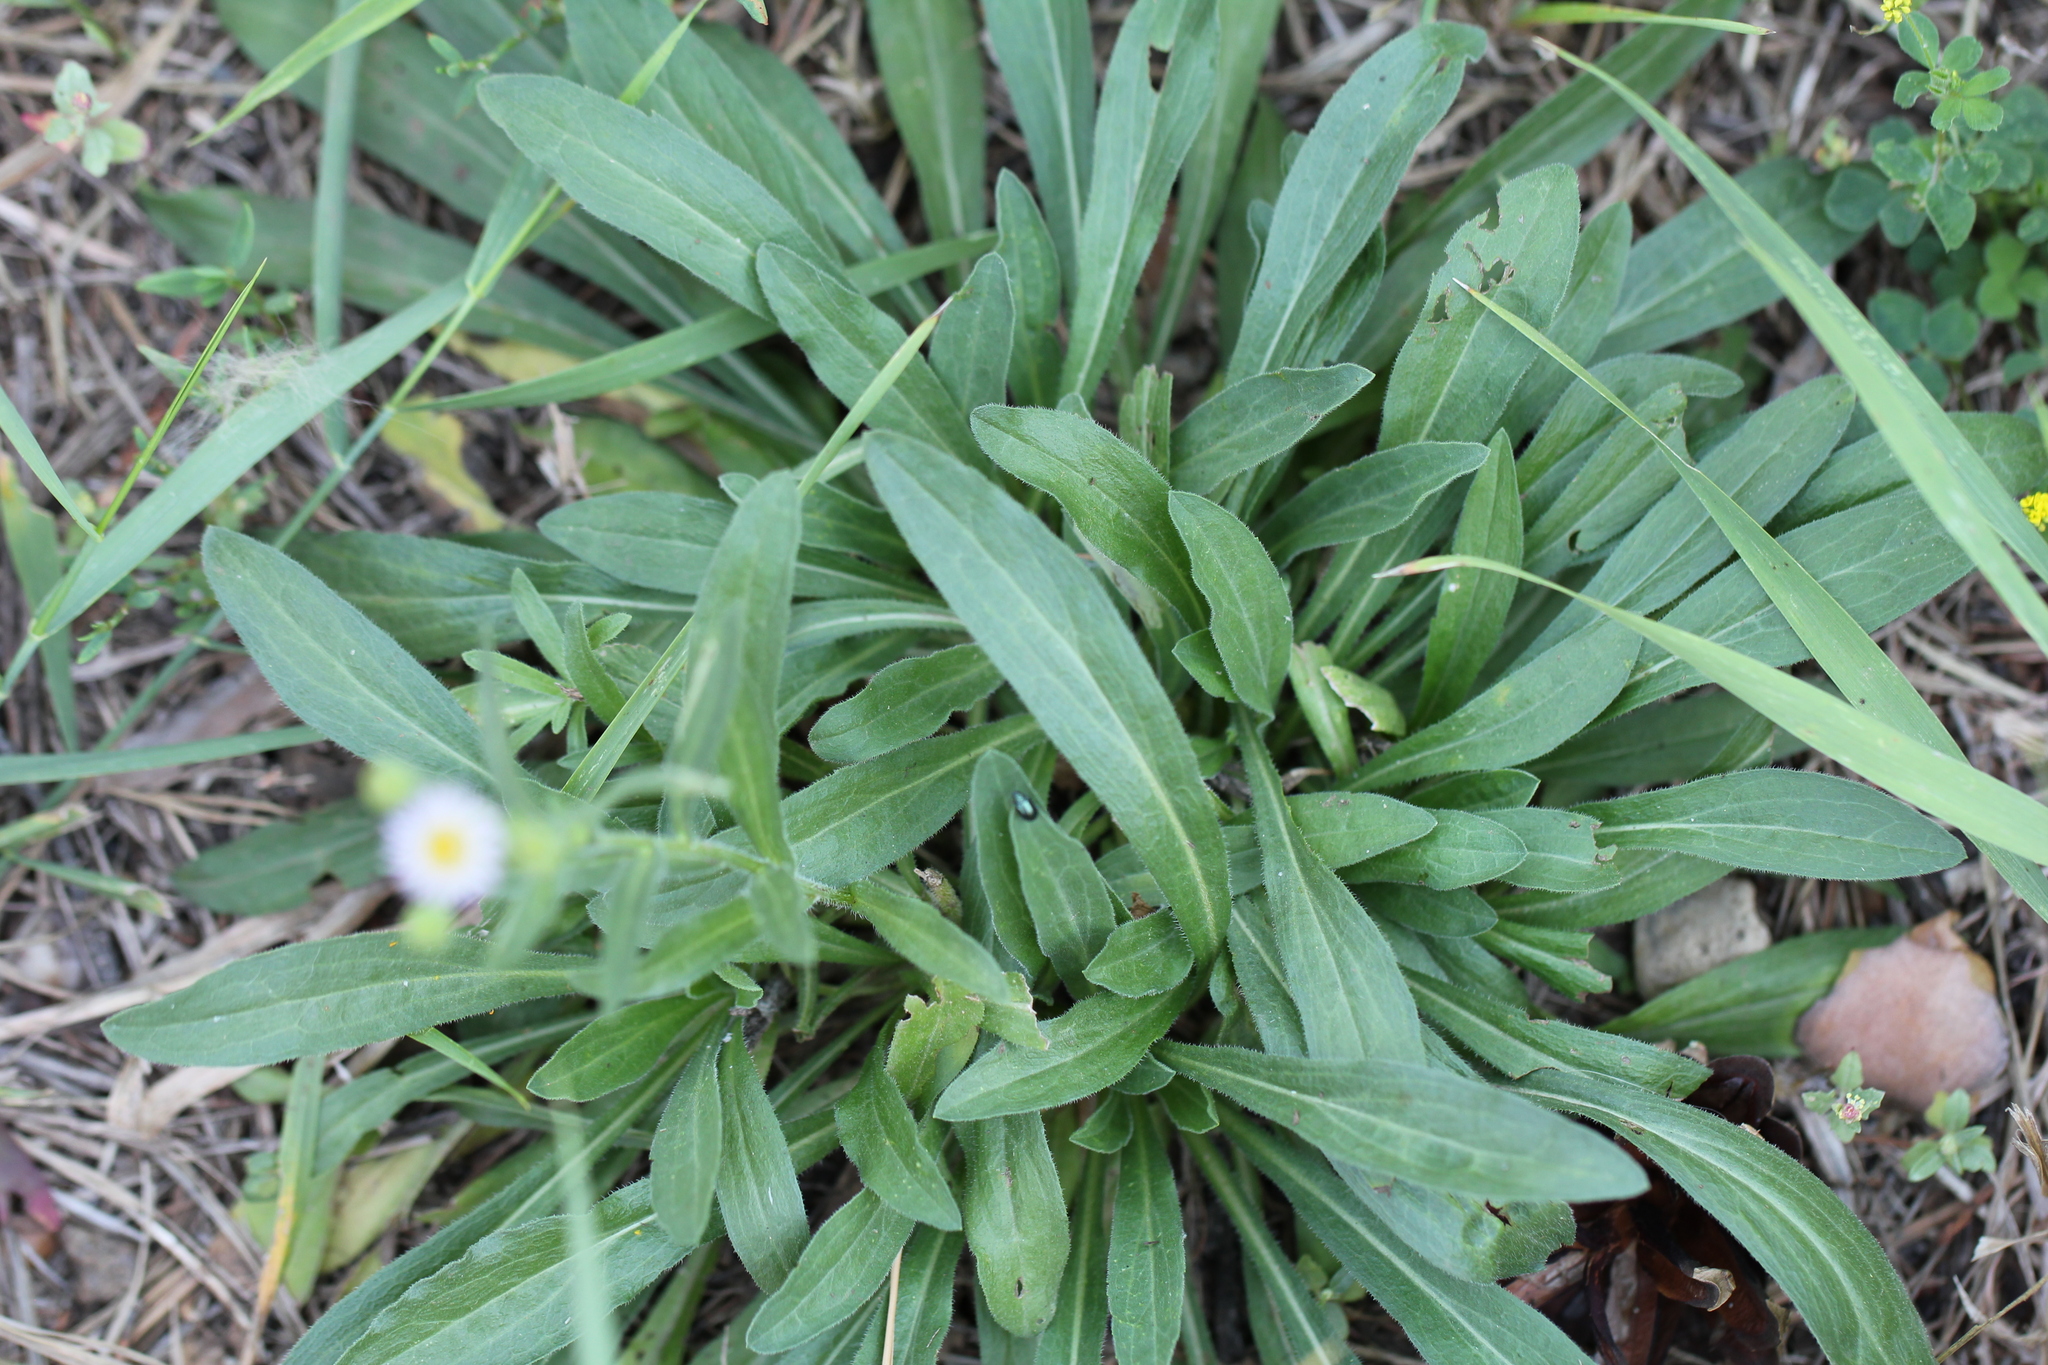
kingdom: Plantae
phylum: Tracheophyta
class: Magnoliopsida
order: Asterales
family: Asteraceae
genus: Erigeron
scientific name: Erigeron podolicus
